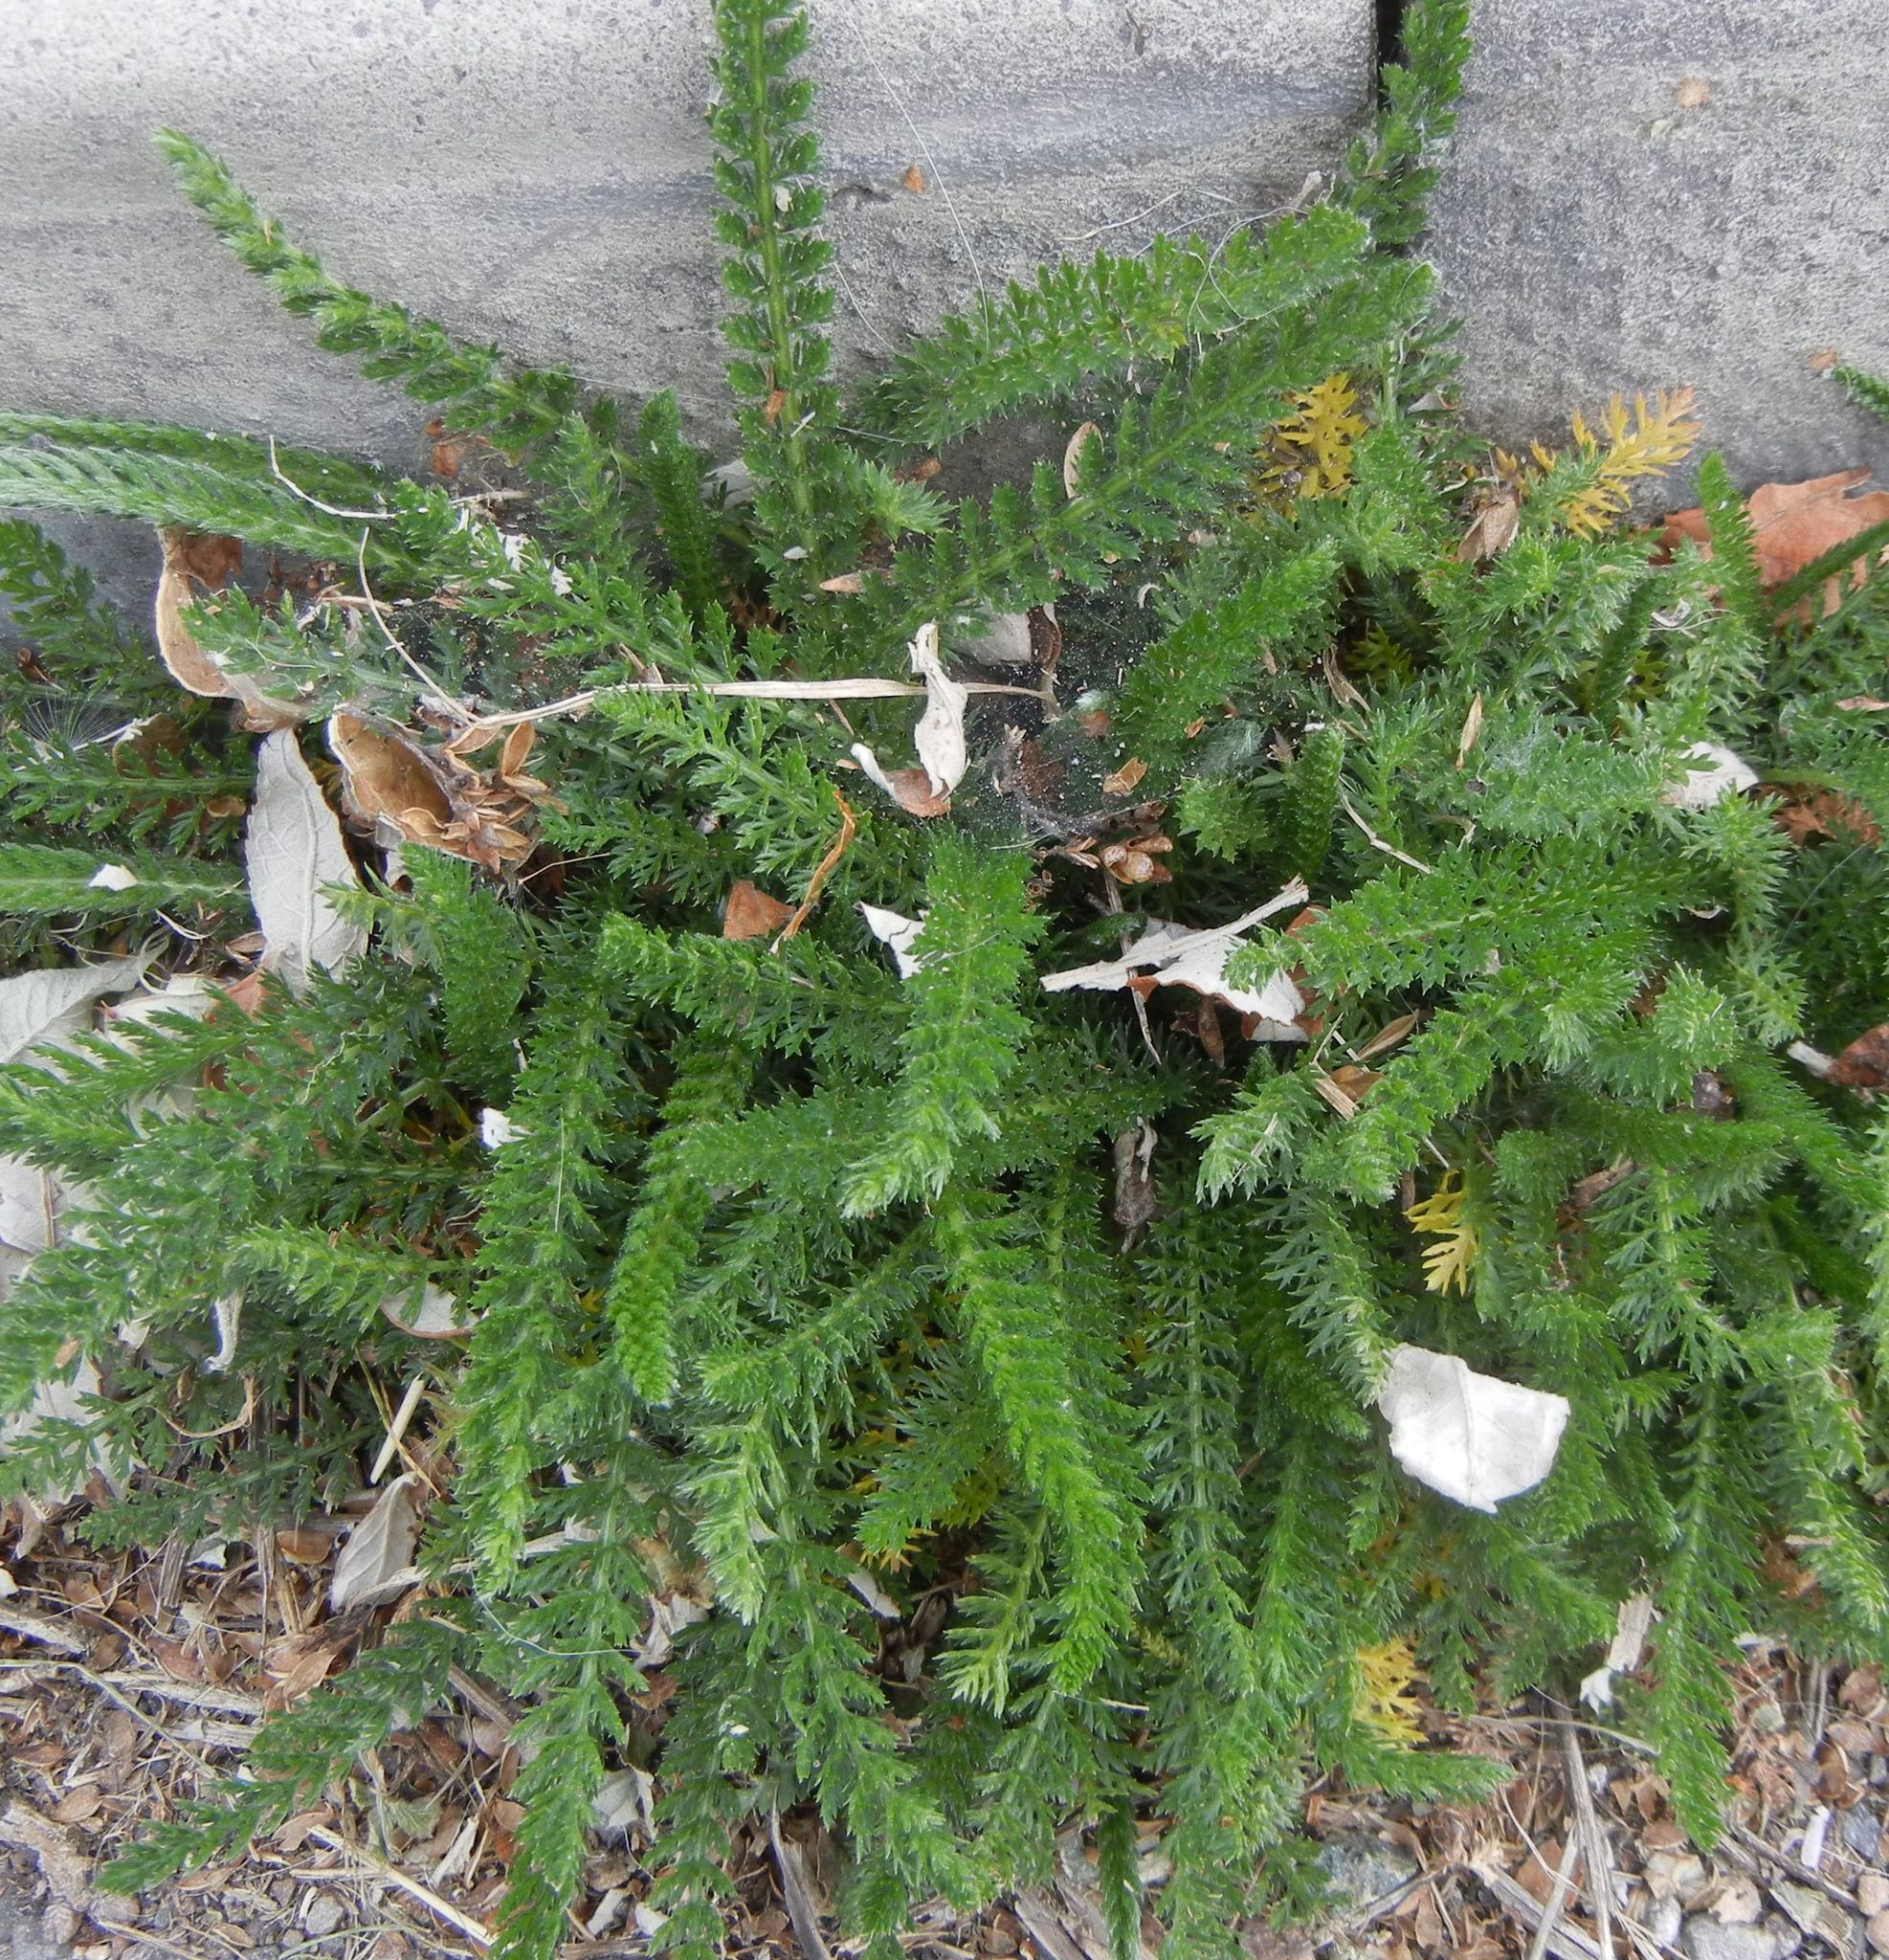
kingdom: Plantae
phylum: Tracheophyta
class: Magnoliopsida
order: Asterales
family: Asteraceae
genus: Achillea
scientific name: Achillea millefolium
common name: Yarrow
